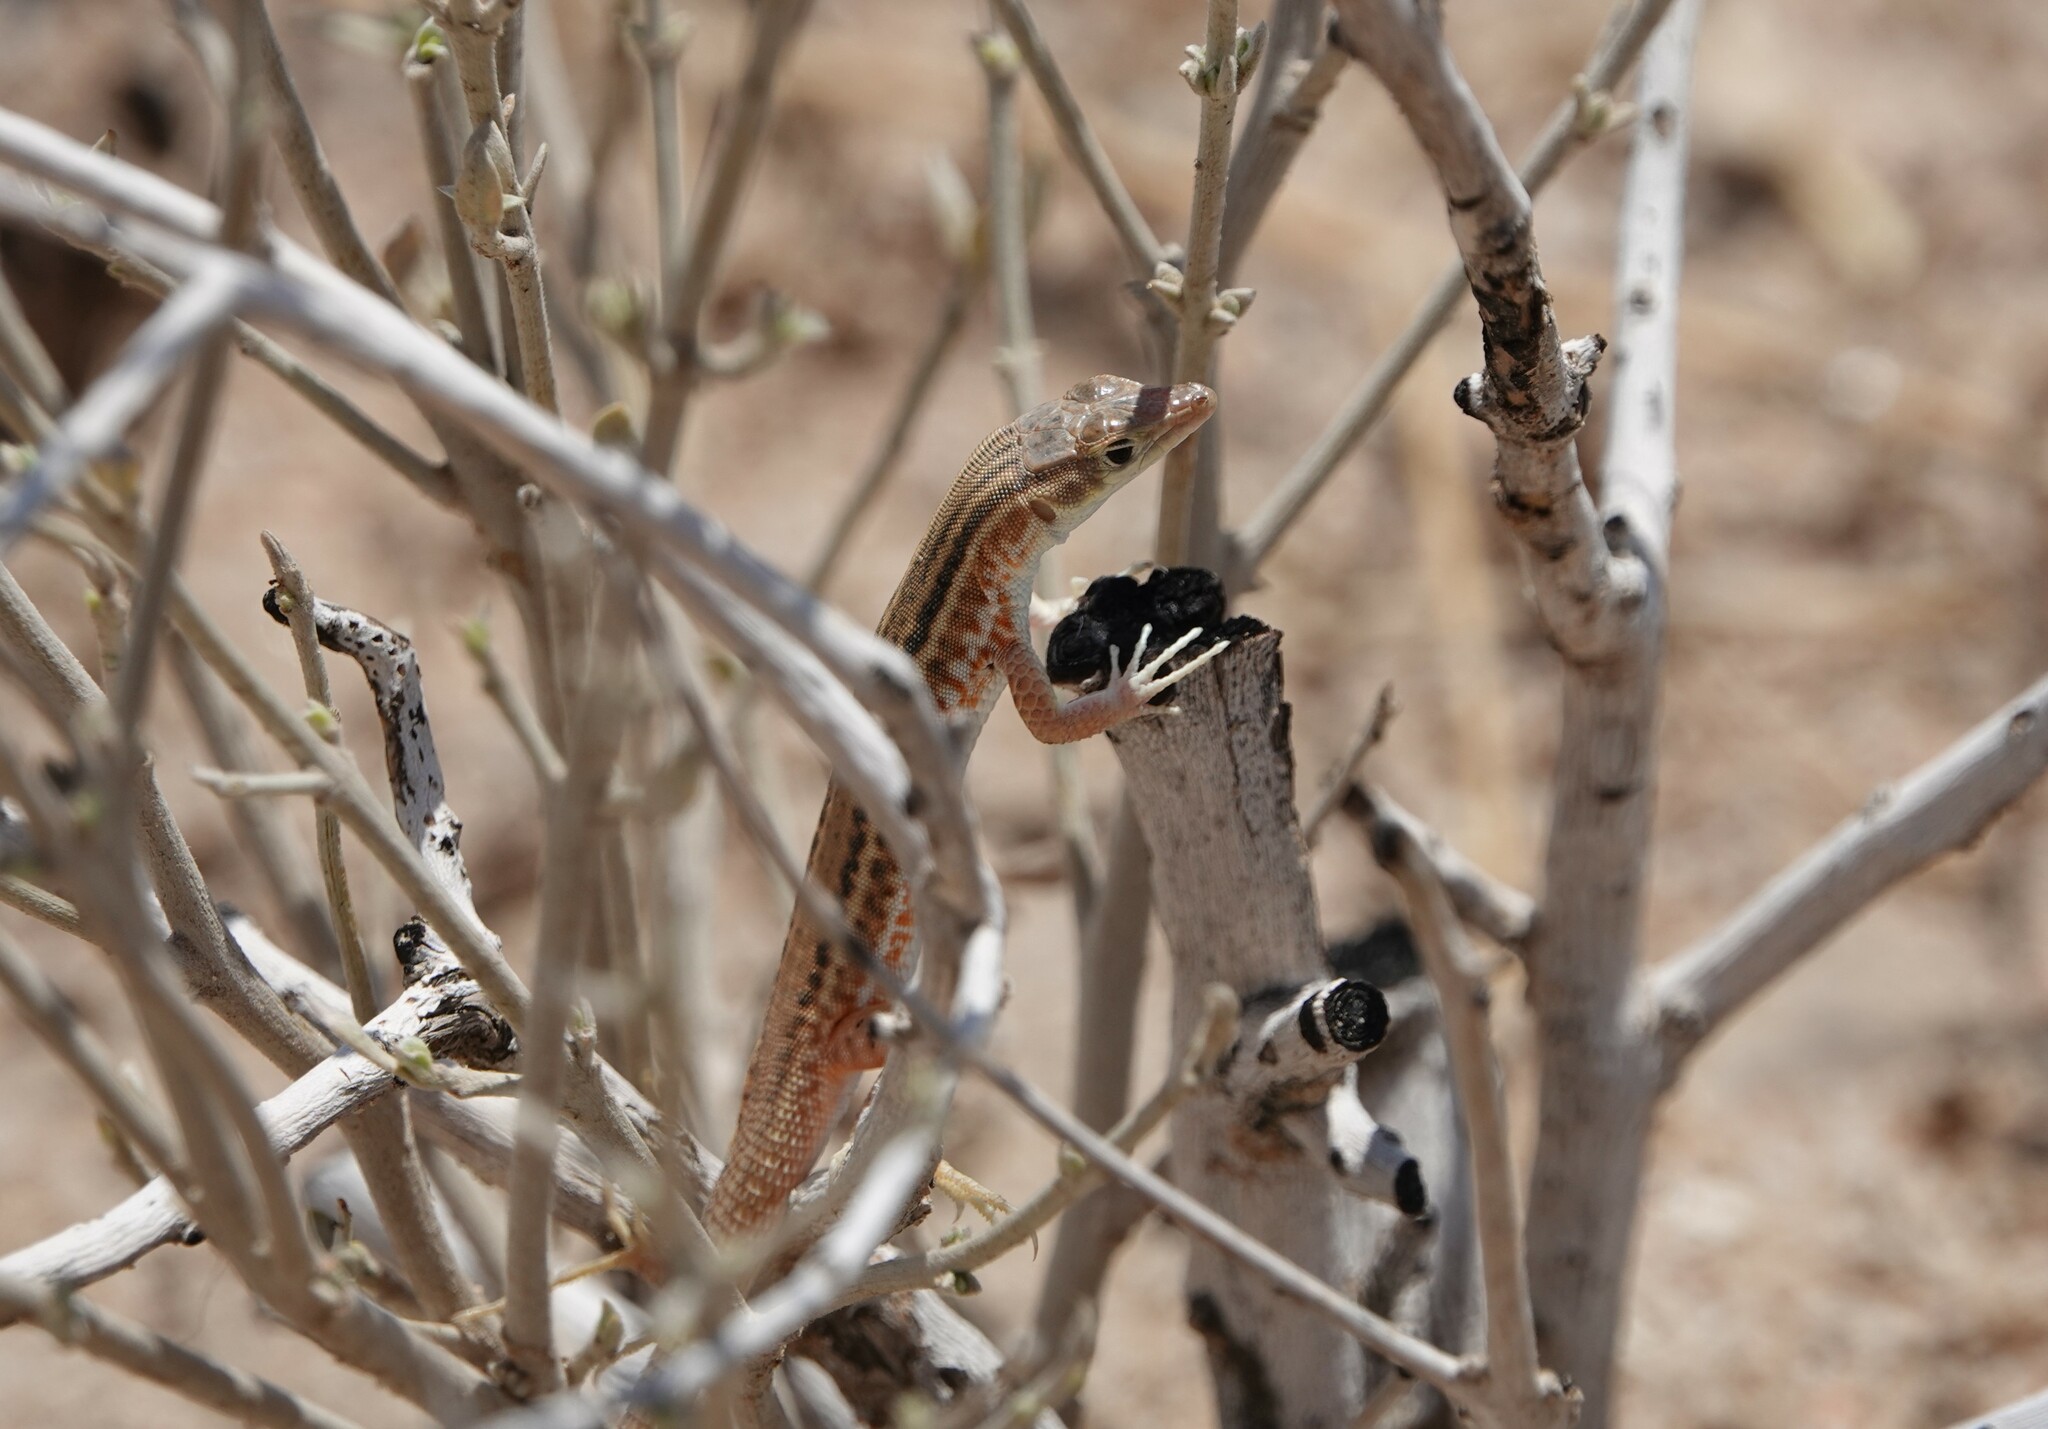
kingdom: Animalia
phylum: Chordata
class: Squamata
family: Lacertidae
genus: Pedioplanis
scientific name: Pedioplanis namaquensis
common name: Namaqua sand lizard
